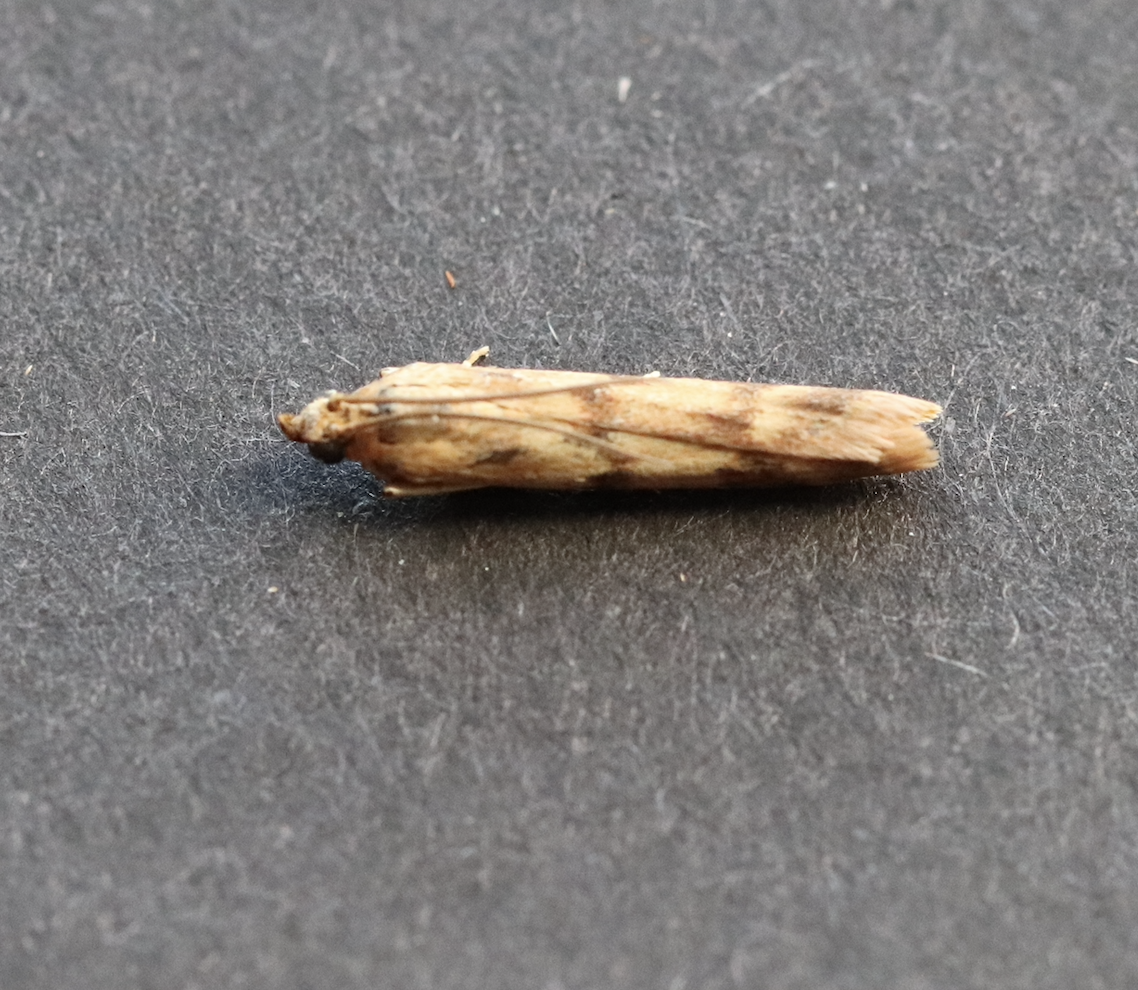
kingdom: Animalia
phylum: Arthropoda
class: Insecta
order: Lepidoptera
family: Pyralidae
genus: Homoeosoma
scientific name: Homoeosoma sinuella
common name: Twin-barred knot-horn
